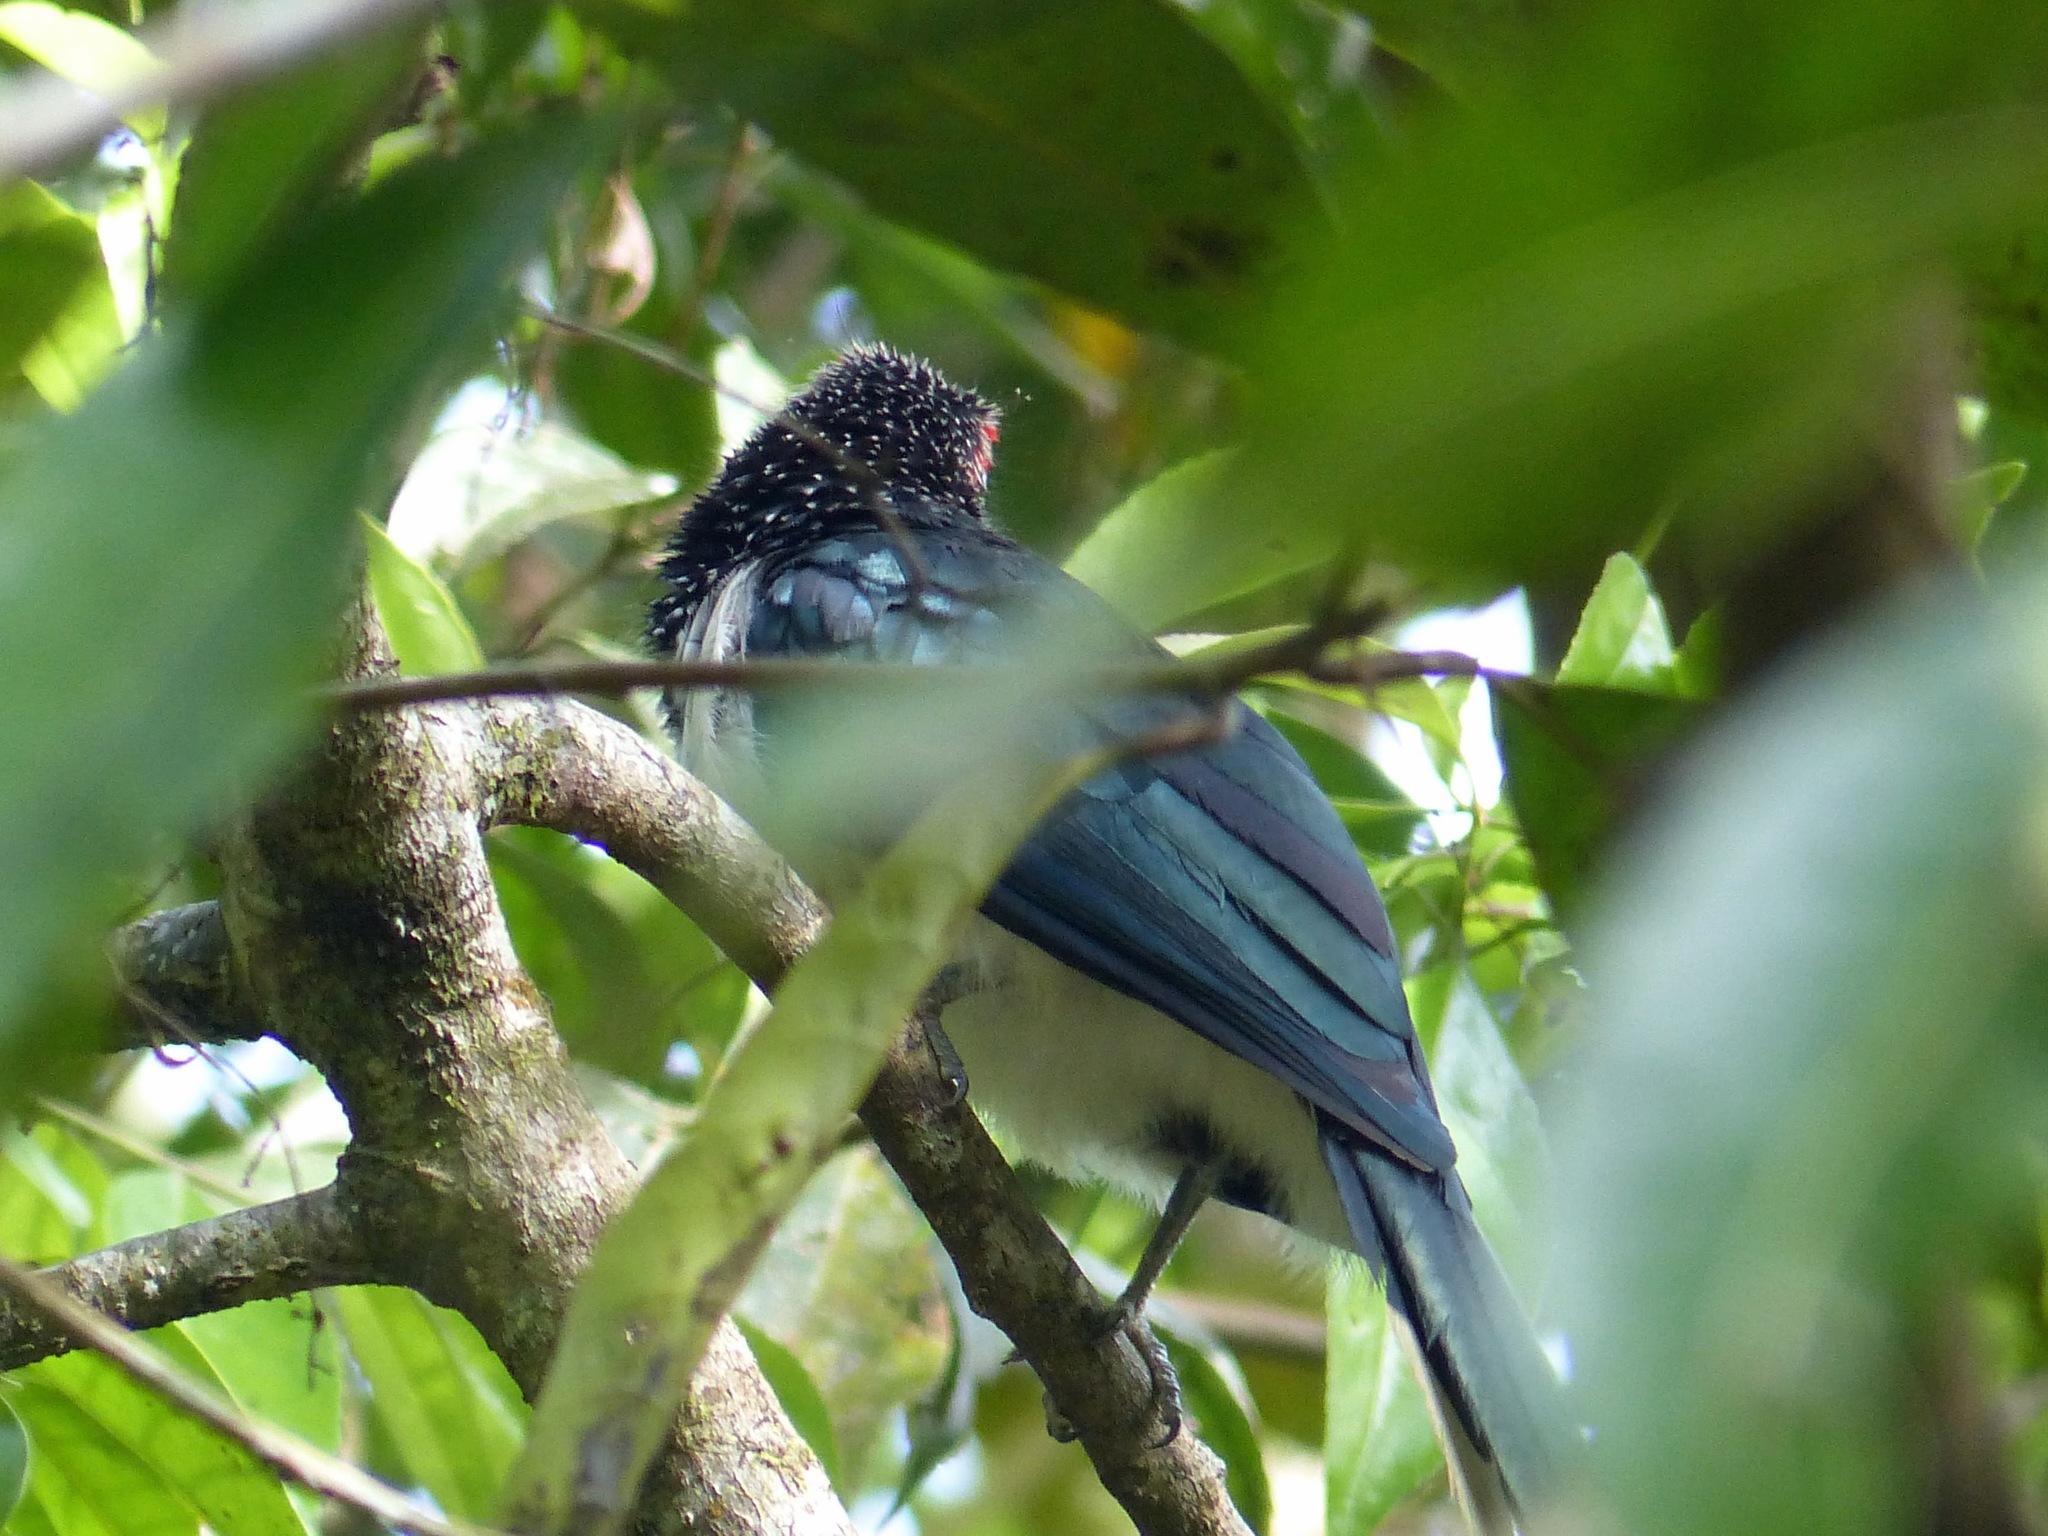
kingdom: Animalia
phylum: Chordata
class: Aves
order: Cuculiformes
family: Cuculidae
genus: Phaenicophaeus
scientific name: Phaenicophaeus pyrrhocephalus
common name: Red-faced malkoha
